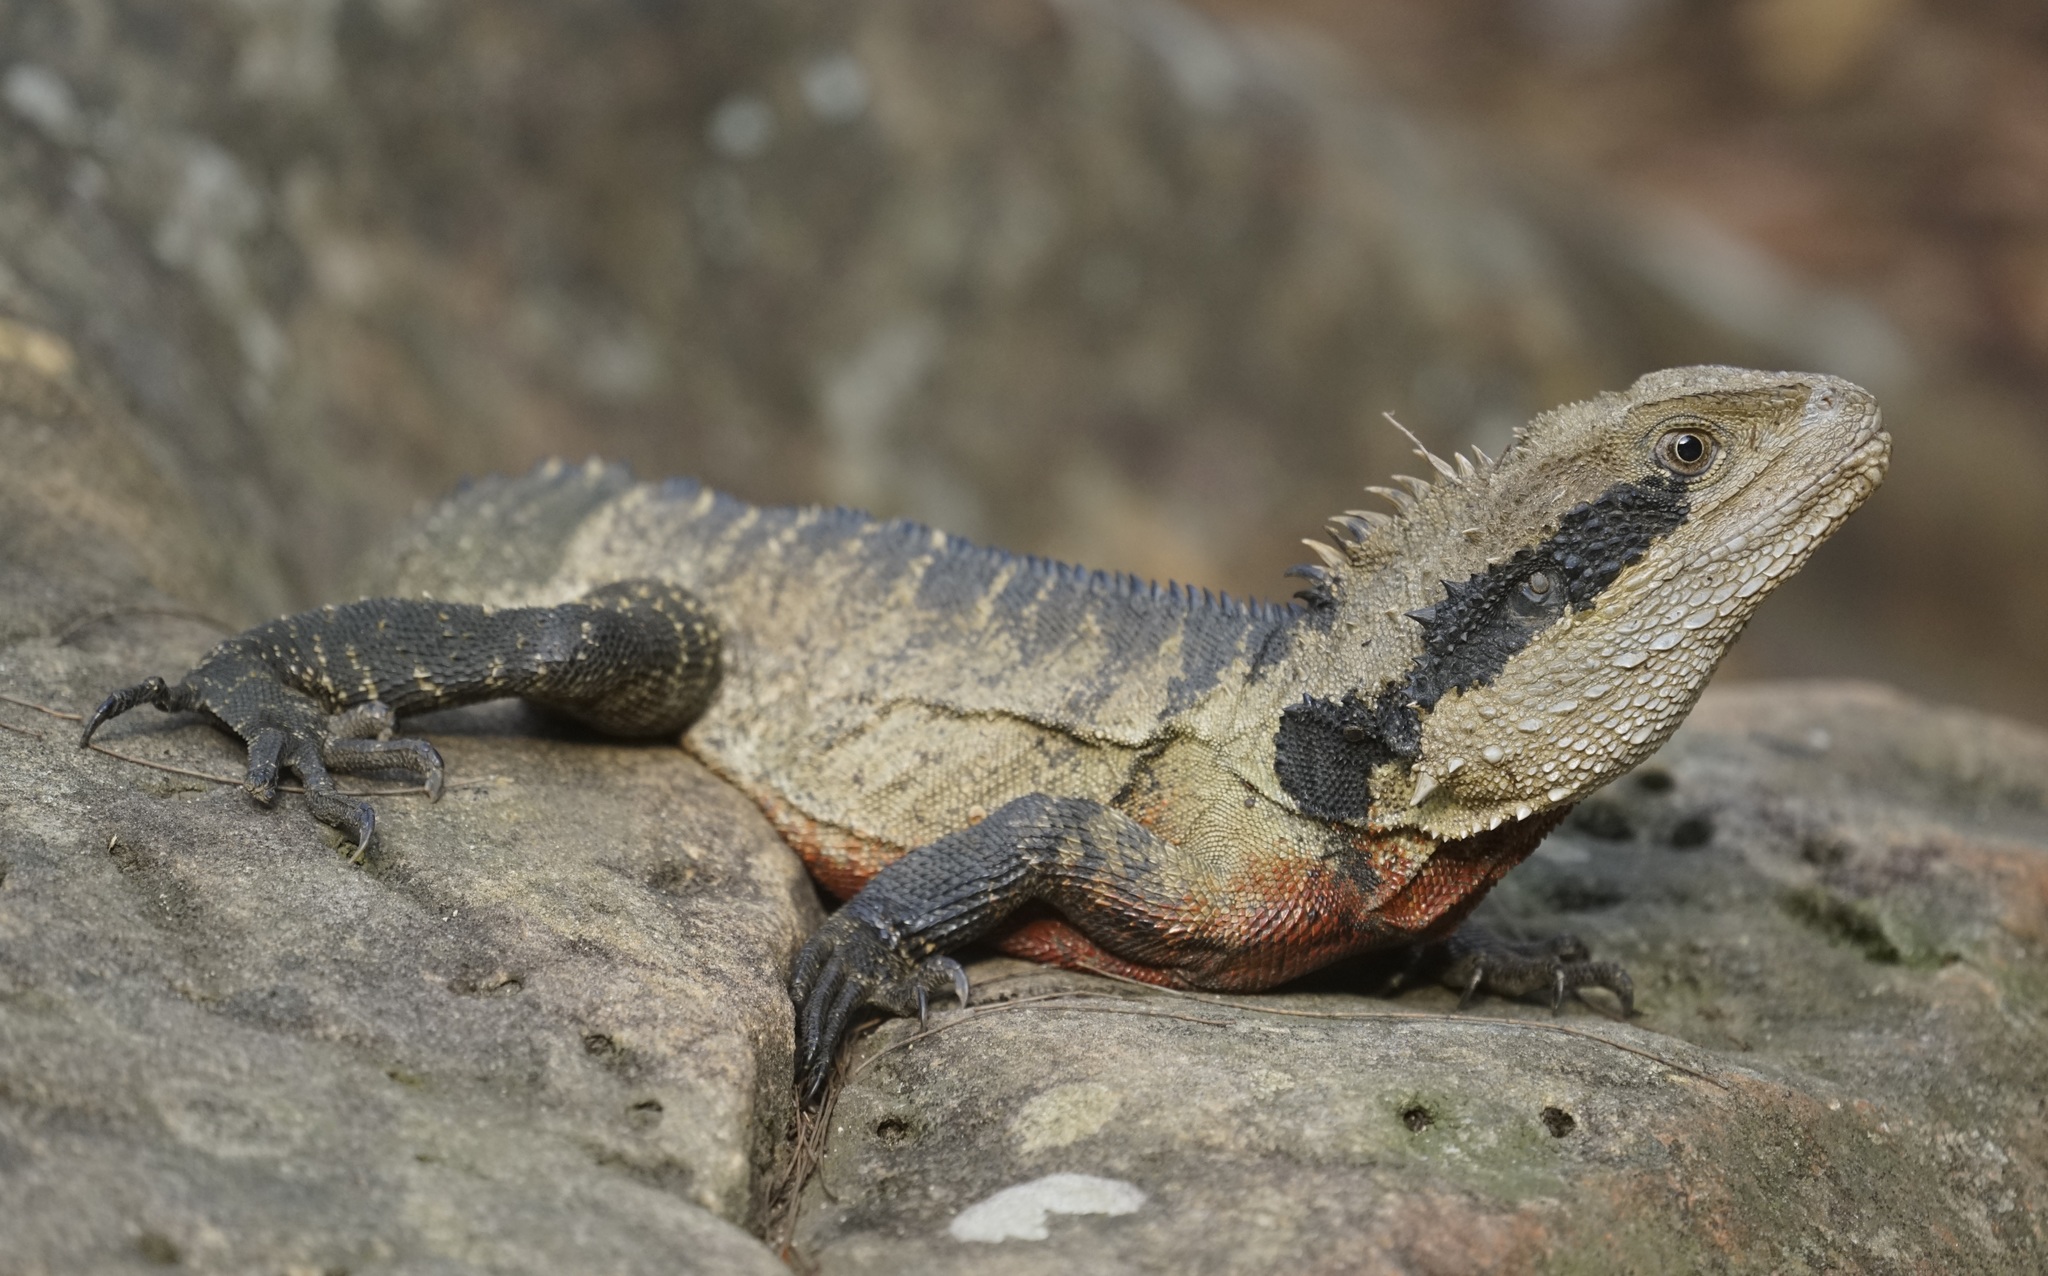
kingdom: Animalia
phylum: Chordata
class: Squamata
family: Agamidae
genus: Intellagama
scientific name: Intellagama lesueurii
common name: Eastern water dragon
